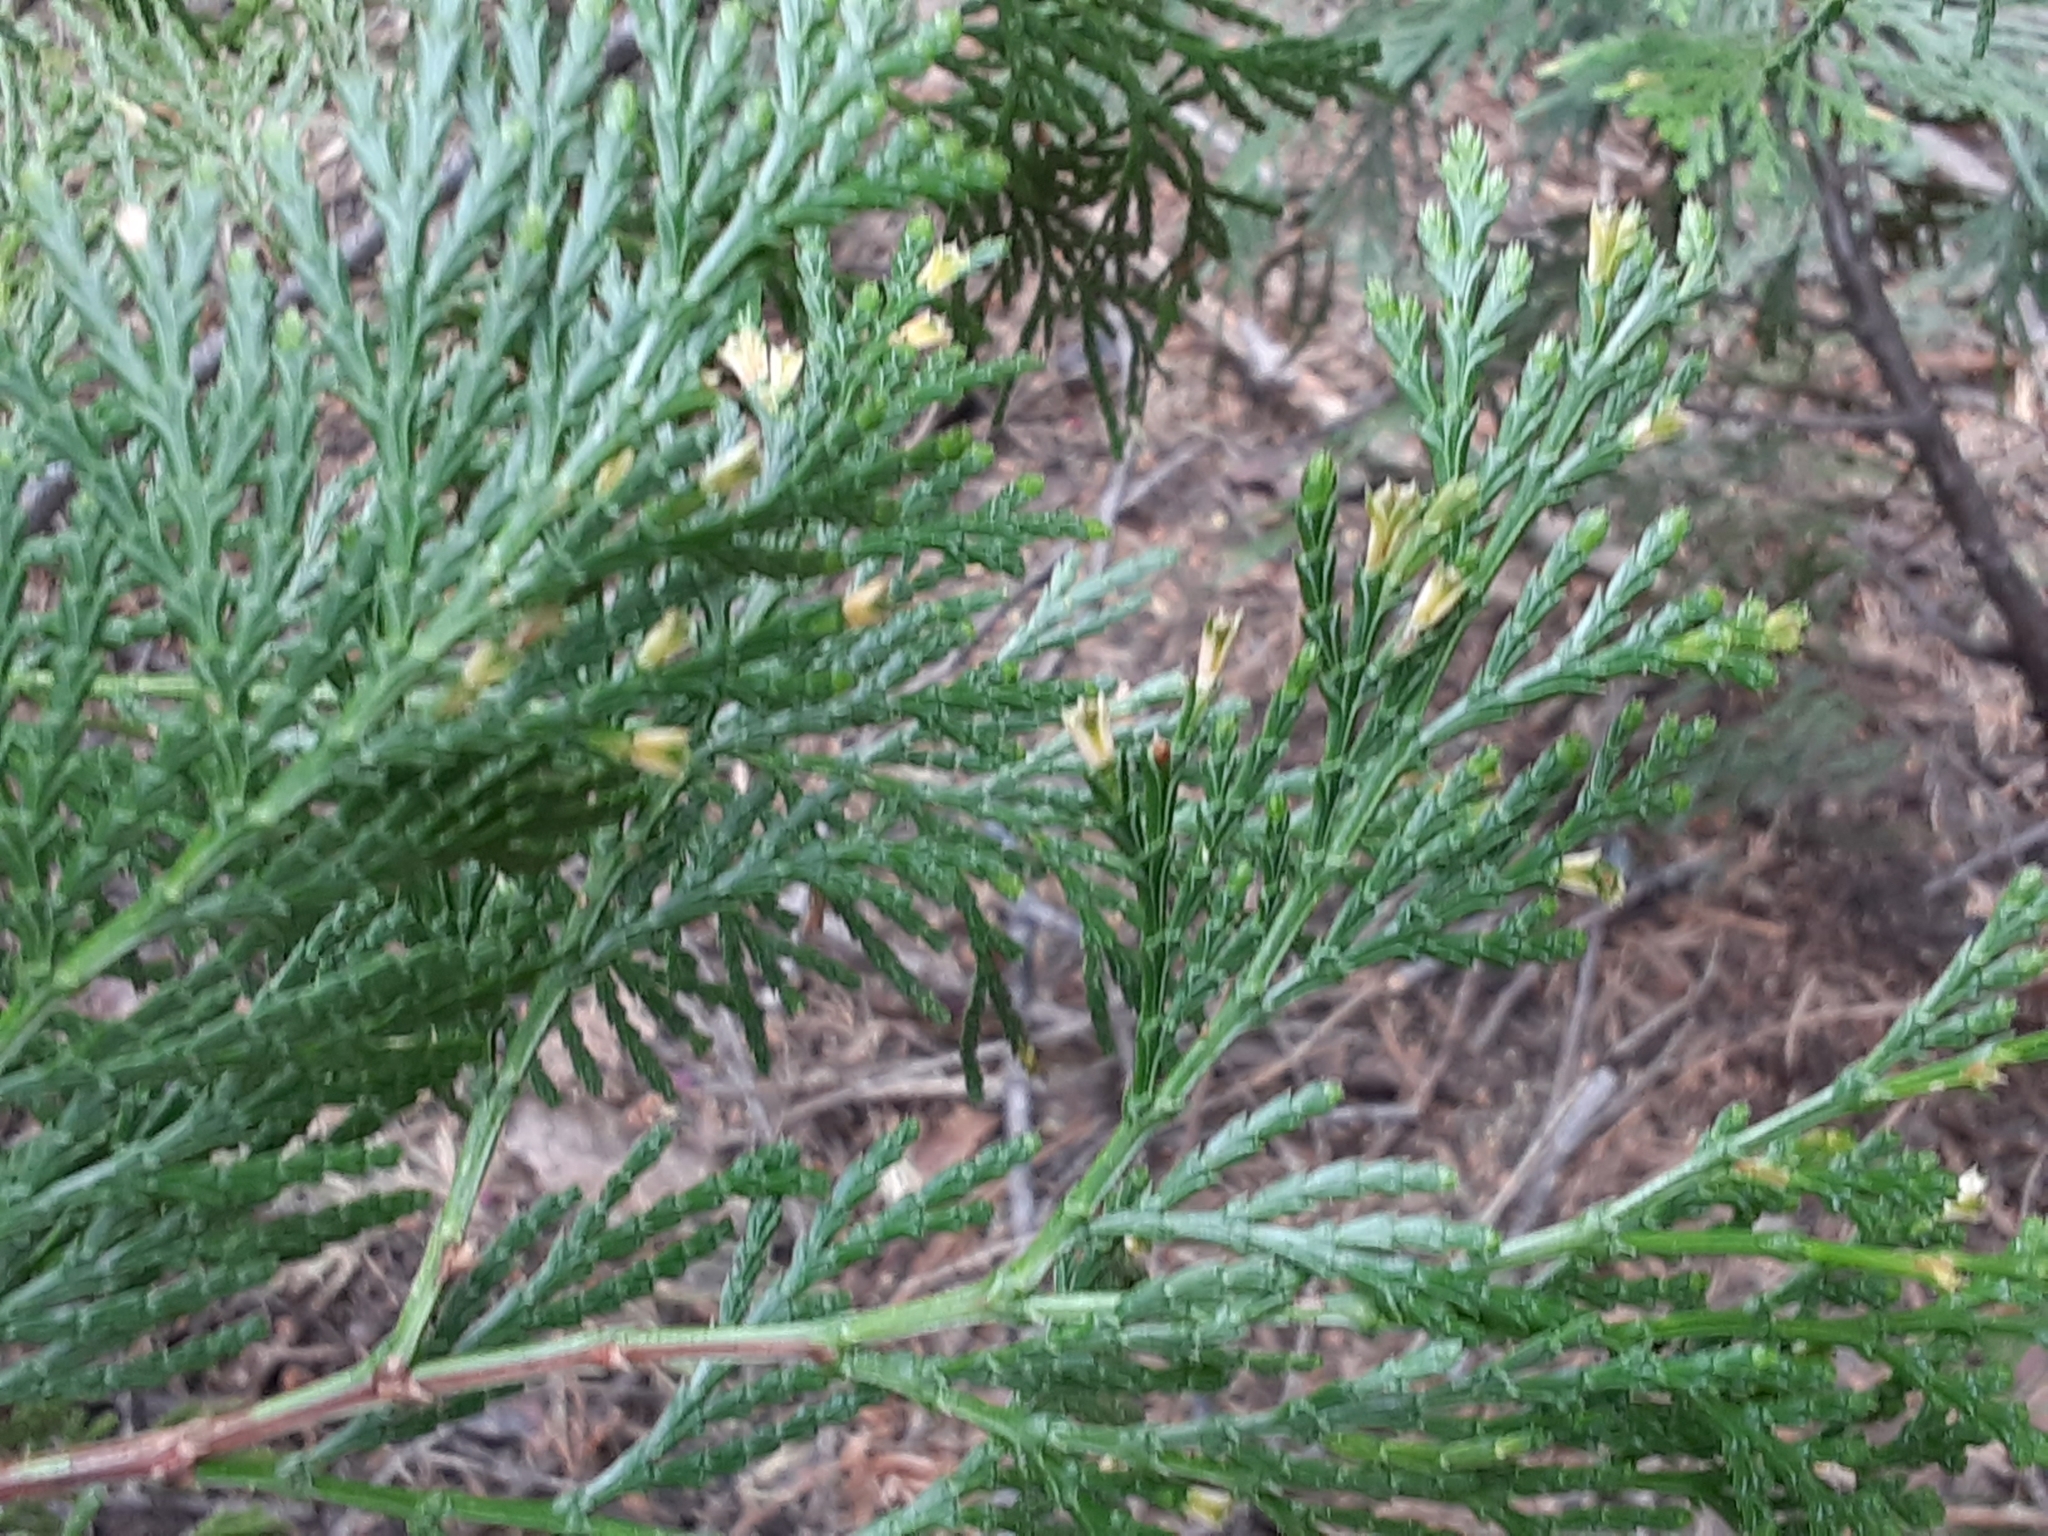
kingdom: Plantae
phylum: Tracheophyta
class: Pinopsida
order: Pinales
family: Cupressaceae
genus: Calocedrus
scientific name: Calocedrus decurrens
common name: Californian incense-cedar
